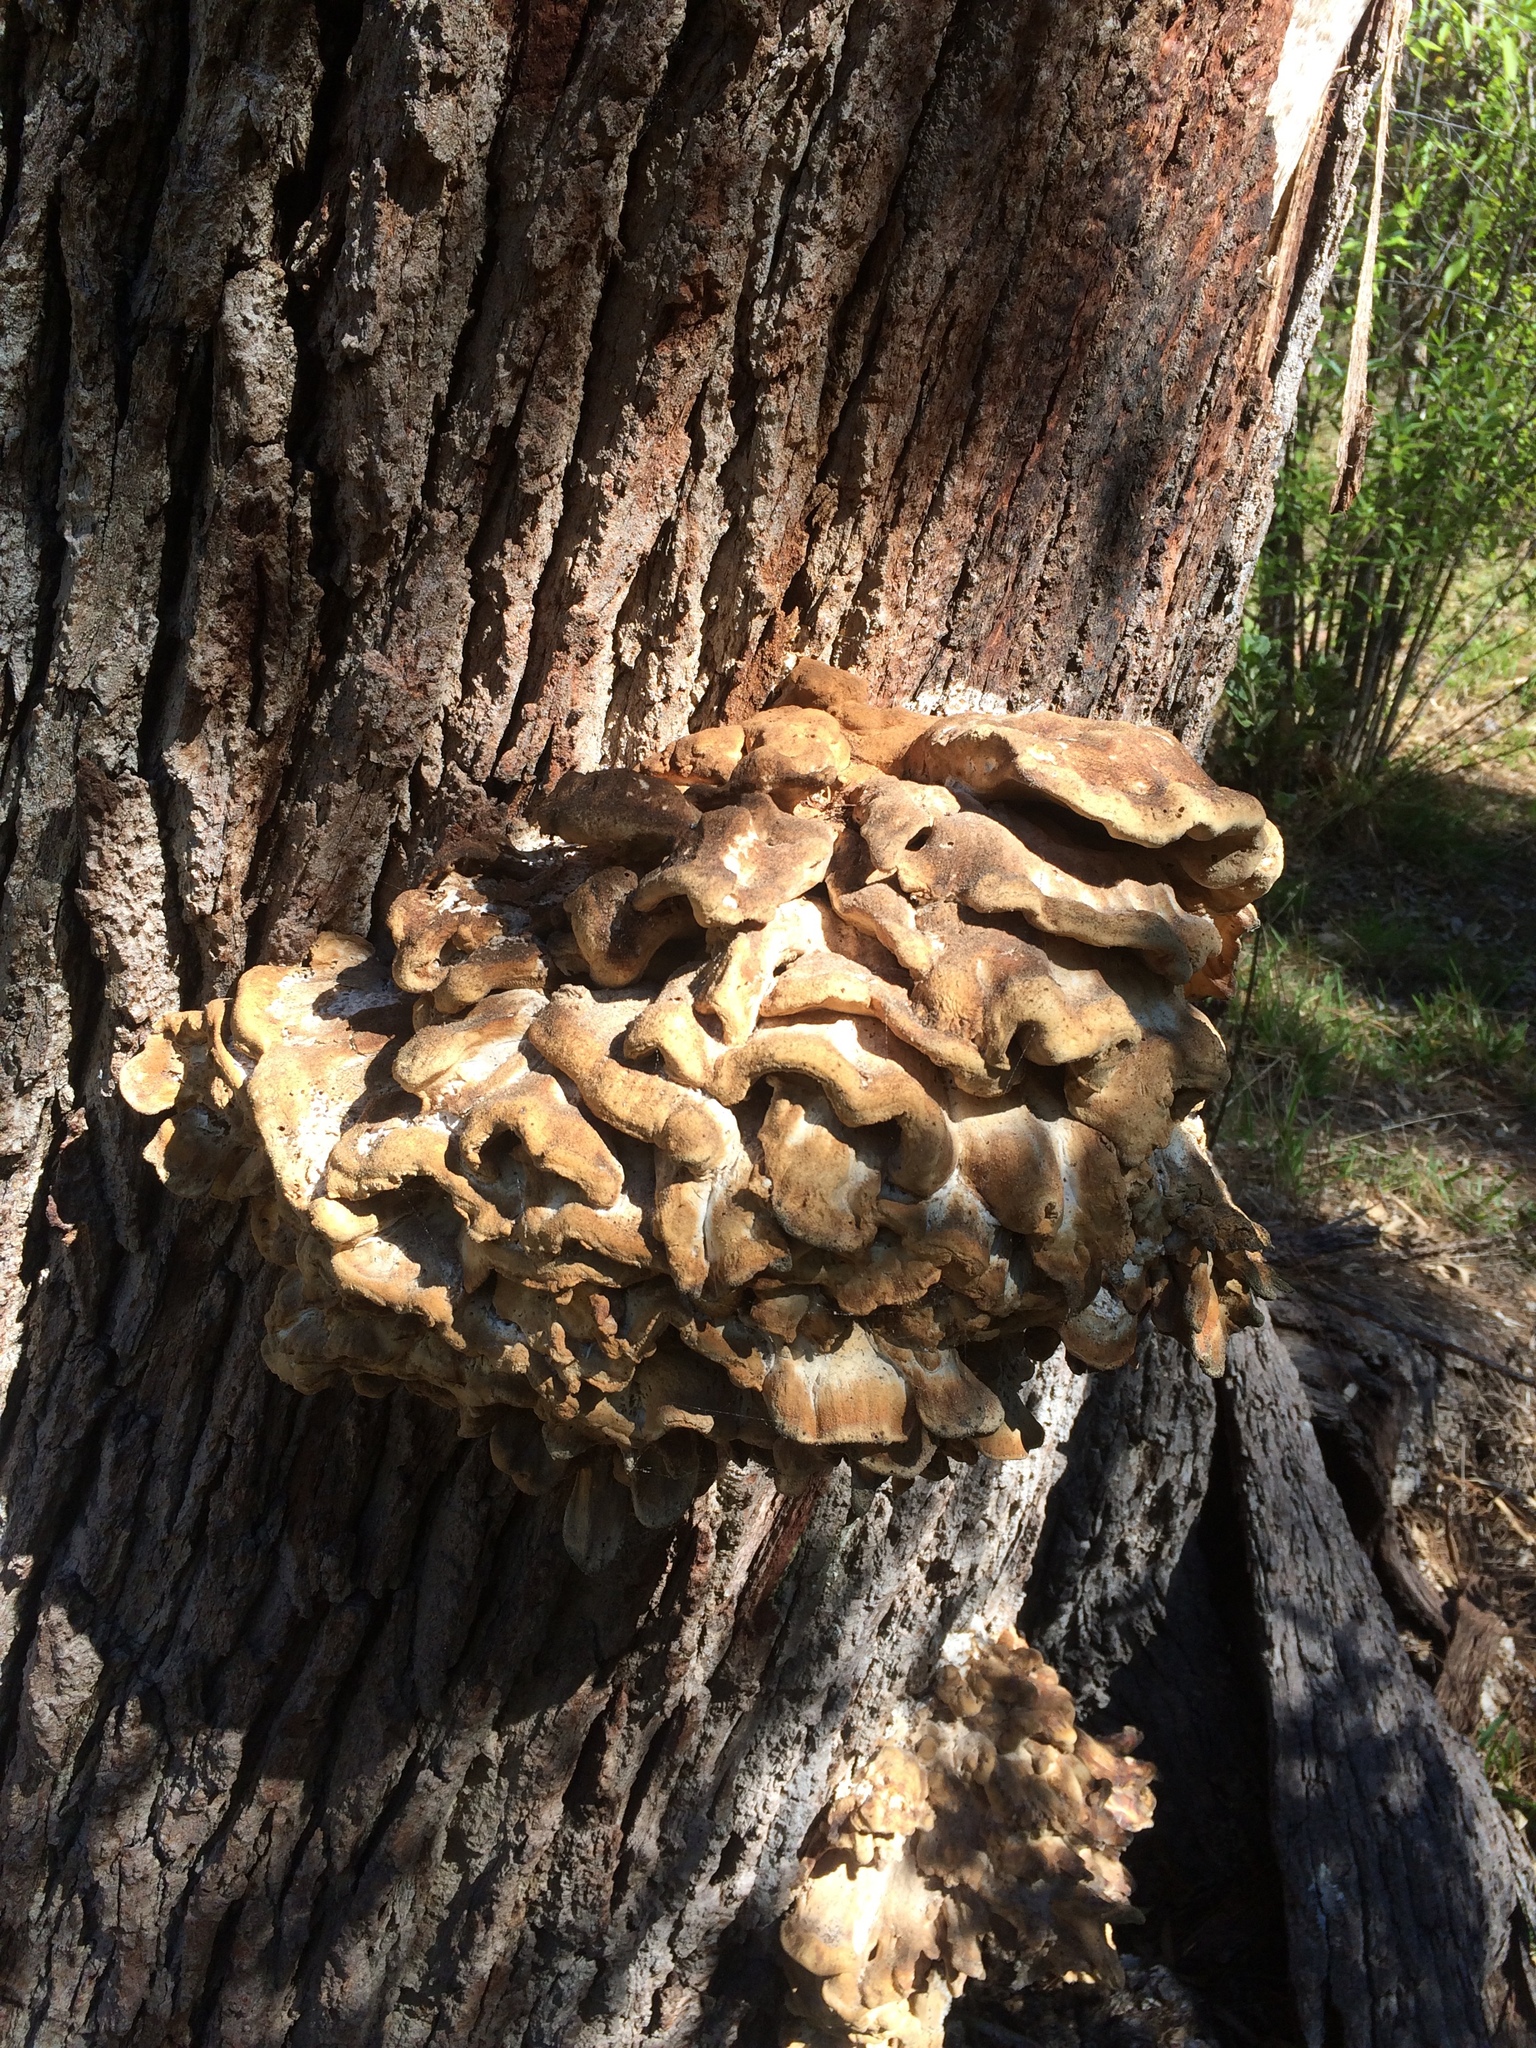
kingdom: Fungi
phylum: Basidiomycota
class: Agaricomycetes
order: Polyporales
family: Laetiporaceae
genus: Laetiporus
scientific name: Laetiporus sulphureus
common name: Chicken of the woods
